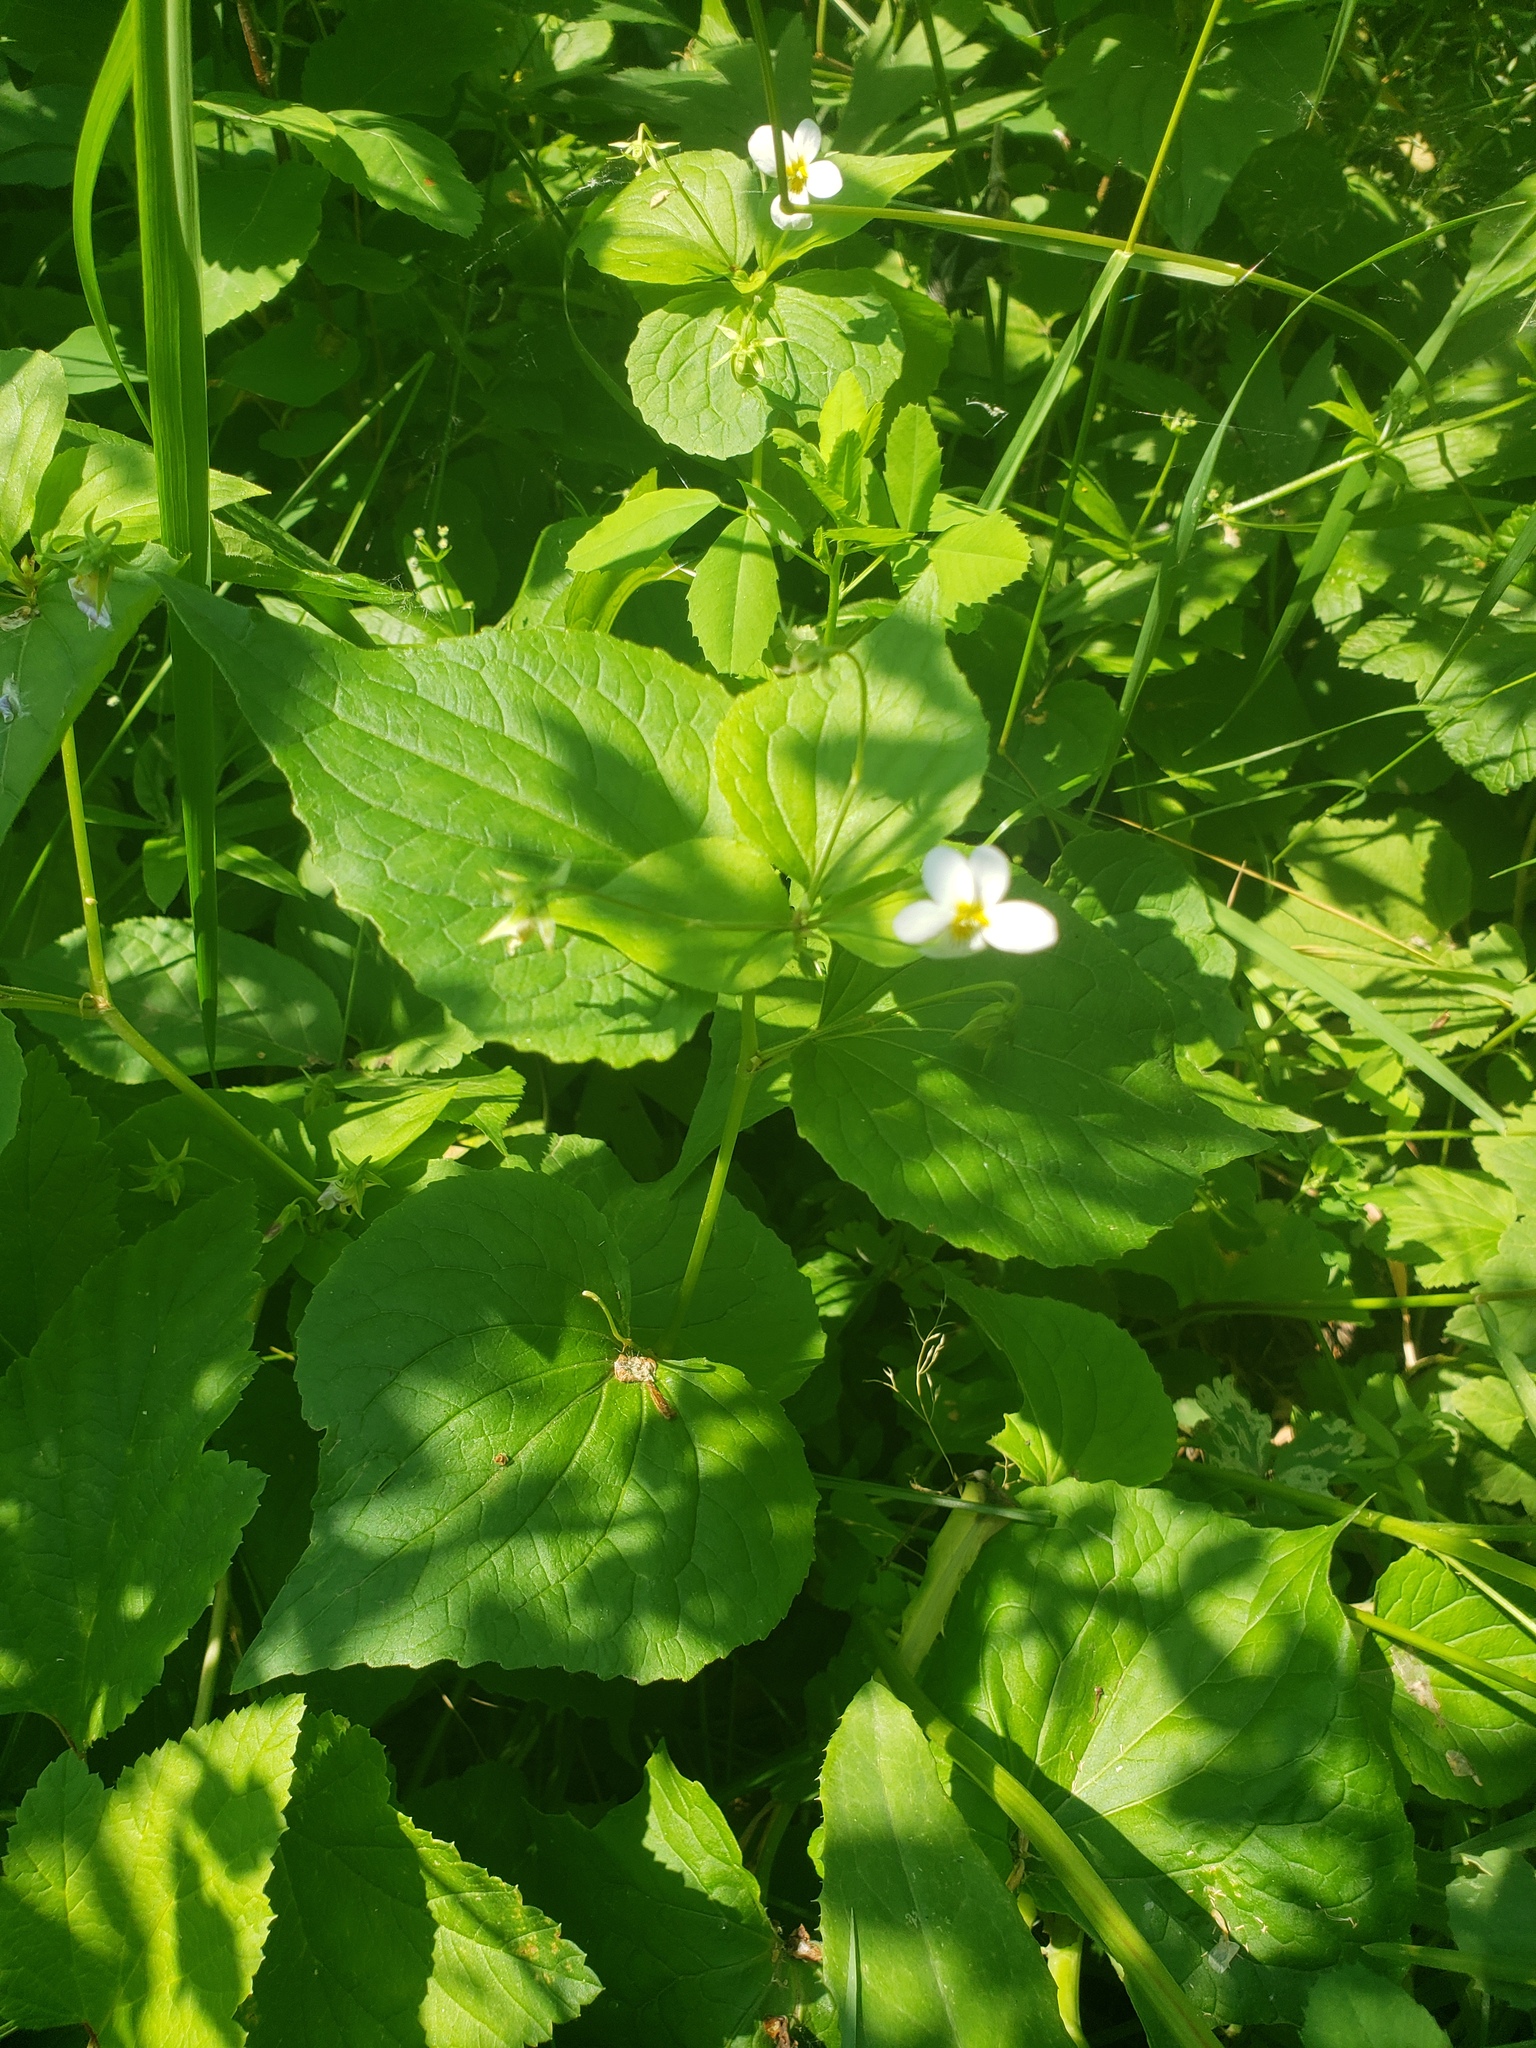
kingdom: Plantae
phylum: Tracheophyta
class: Magnoliopsida
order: Malpighiales
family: Violaceae
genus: Viola
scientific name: Viola canadensis
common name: Canada violet
